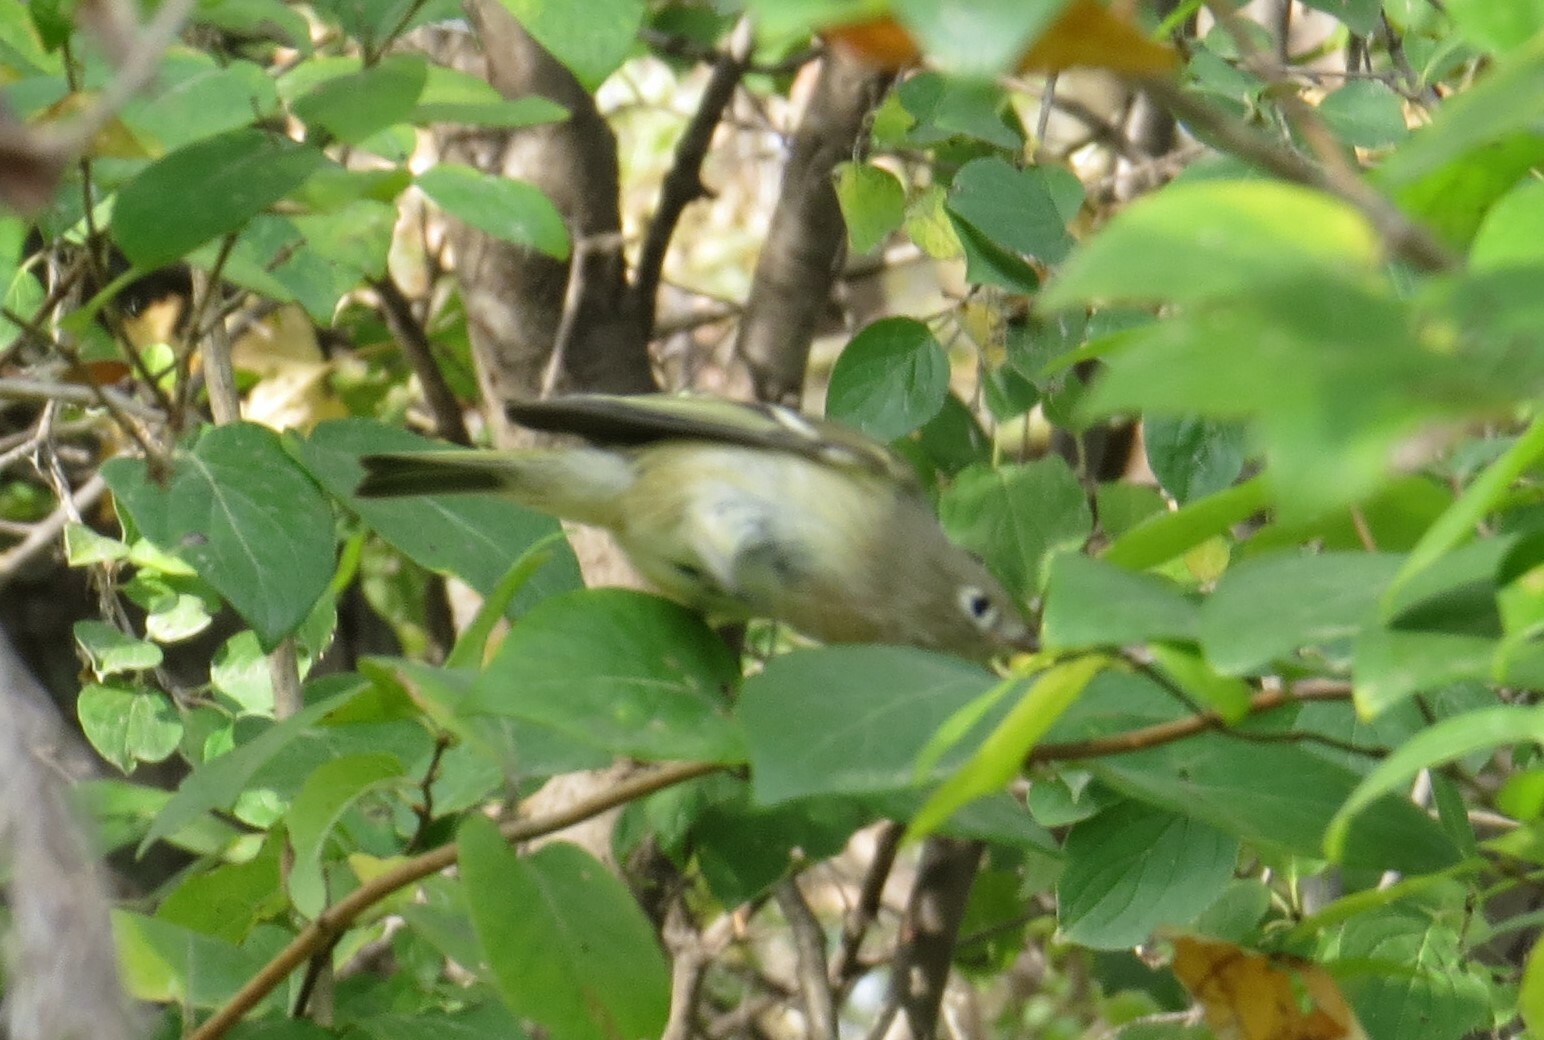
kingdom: Animalia
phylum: Chordata
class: Aves
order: Passeriformes
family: Regulidae
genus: Regulus
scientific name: Regulus calendula
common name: Ruby-crowned kinglet
